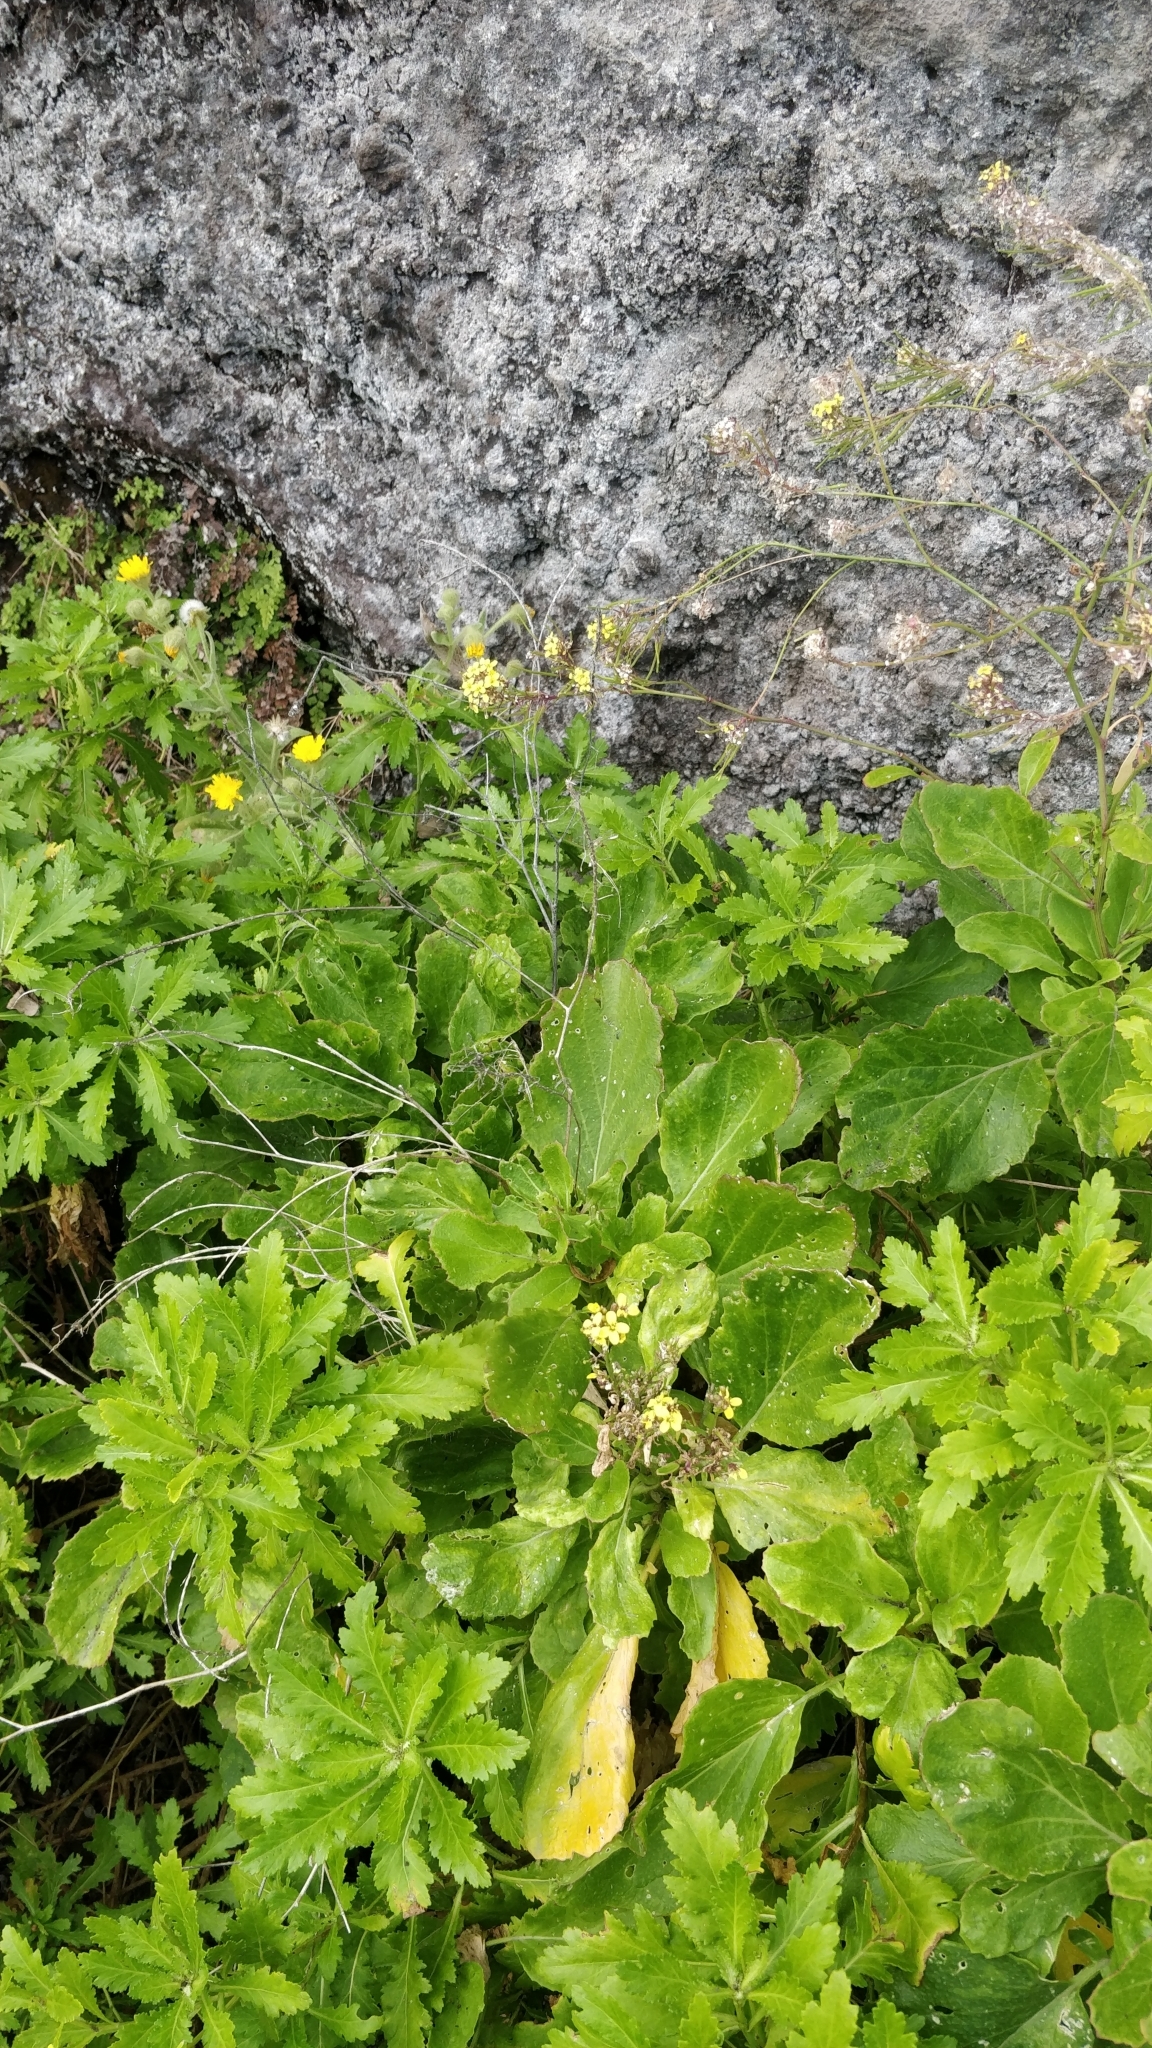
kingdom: Plantae
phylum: Tracheophyta
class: Magnoliopsida
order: Brassicales
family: Brassicaceae
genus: Sinapidendron
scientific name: Sinapidendron rupestre
